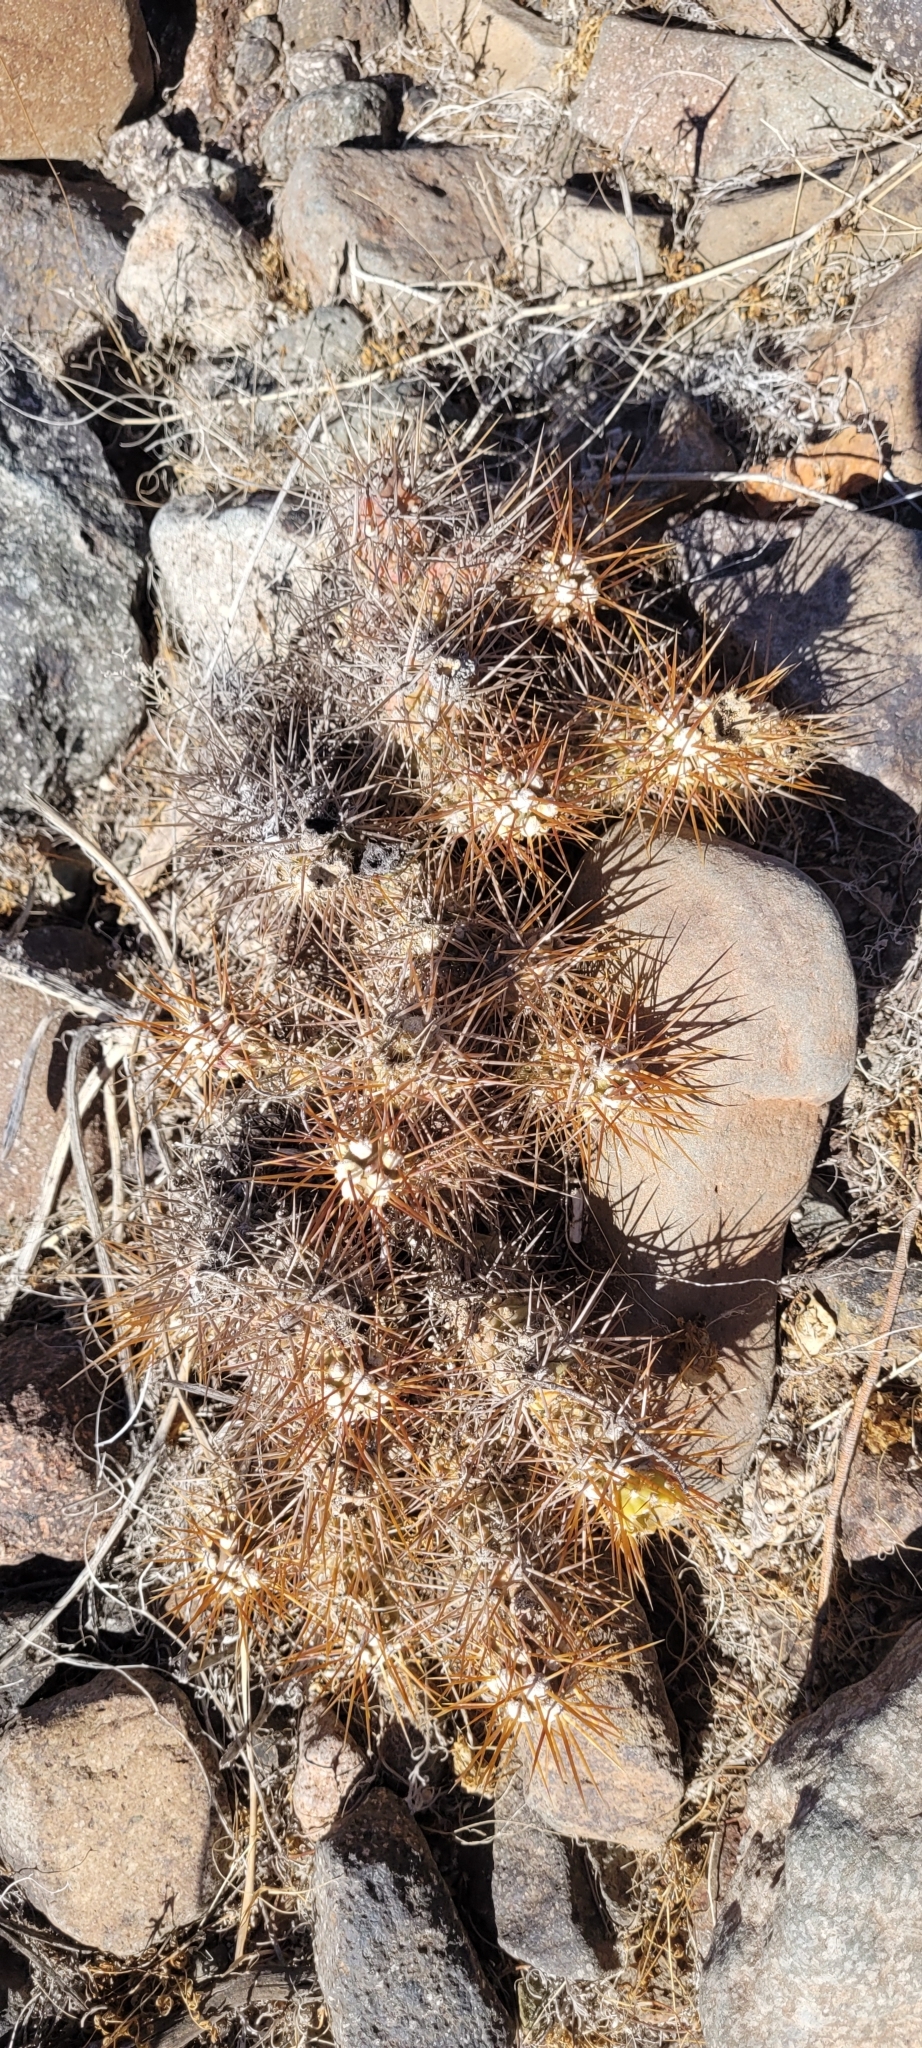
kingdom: Plantae
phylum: Tracheophyta
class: Magnoliopsida
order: Caryophyllales
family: Cactaceae
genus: Cumulopuntia
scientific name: Cumulopuntia leucophaea
